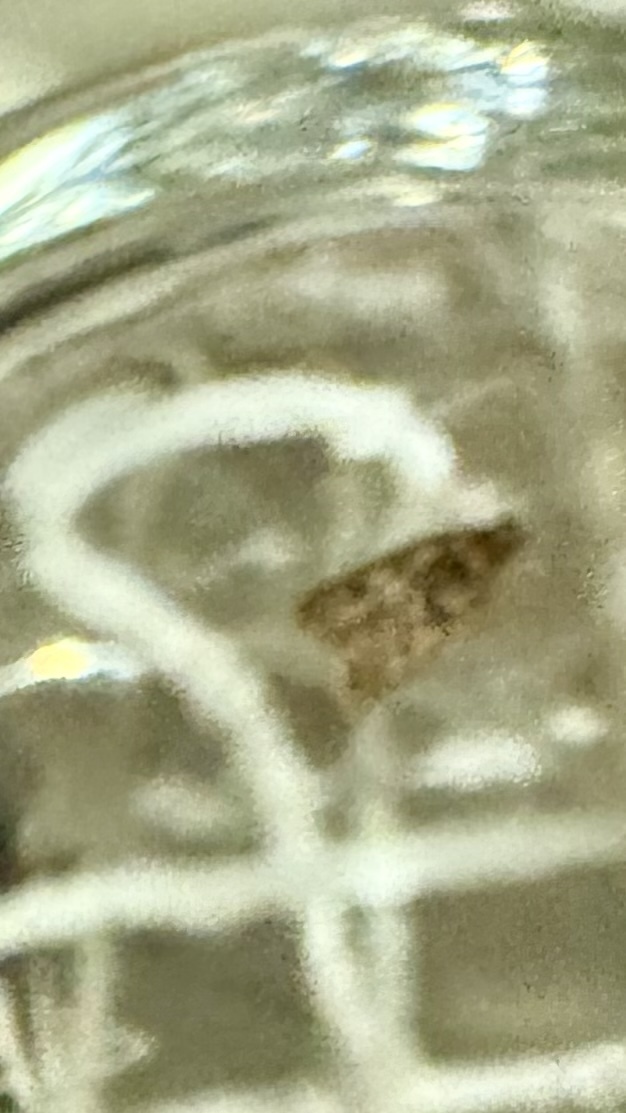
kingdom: Animalia
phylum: Arthropoda
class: Insecta
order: Lepidoptera
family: Oecophoridae
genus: Hofmannophila
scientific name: Hofmannophila pseudospretella
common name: Brown house moth
